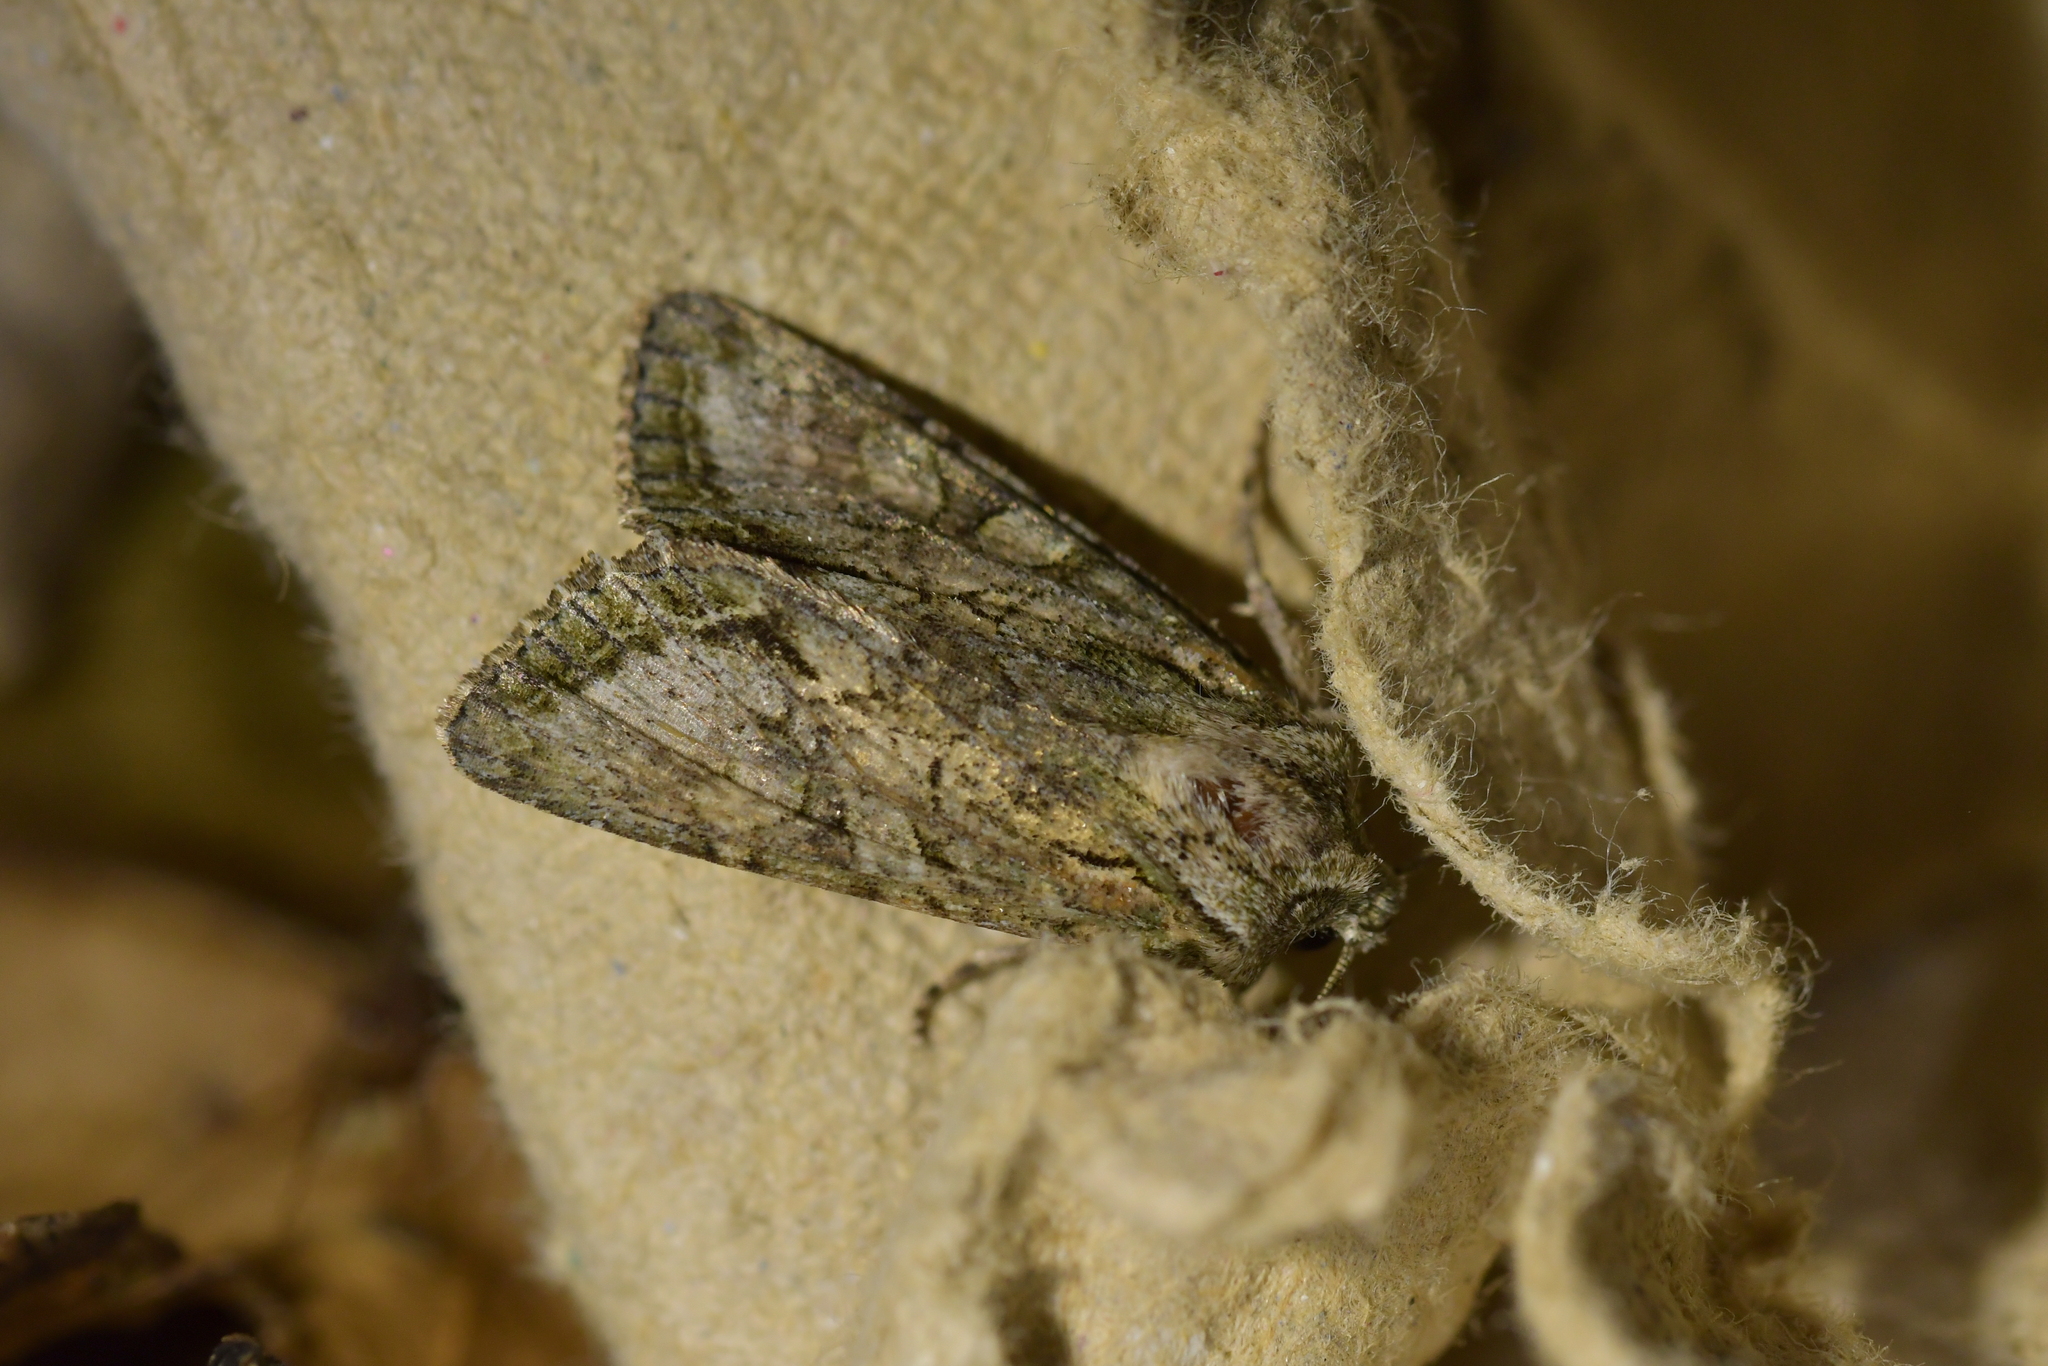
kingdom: Animalia
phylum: Arthropoda
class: Insecta
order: Lepidoptera
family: Noctuidae
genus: Ichneutica
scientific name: Ichneutica mutans
